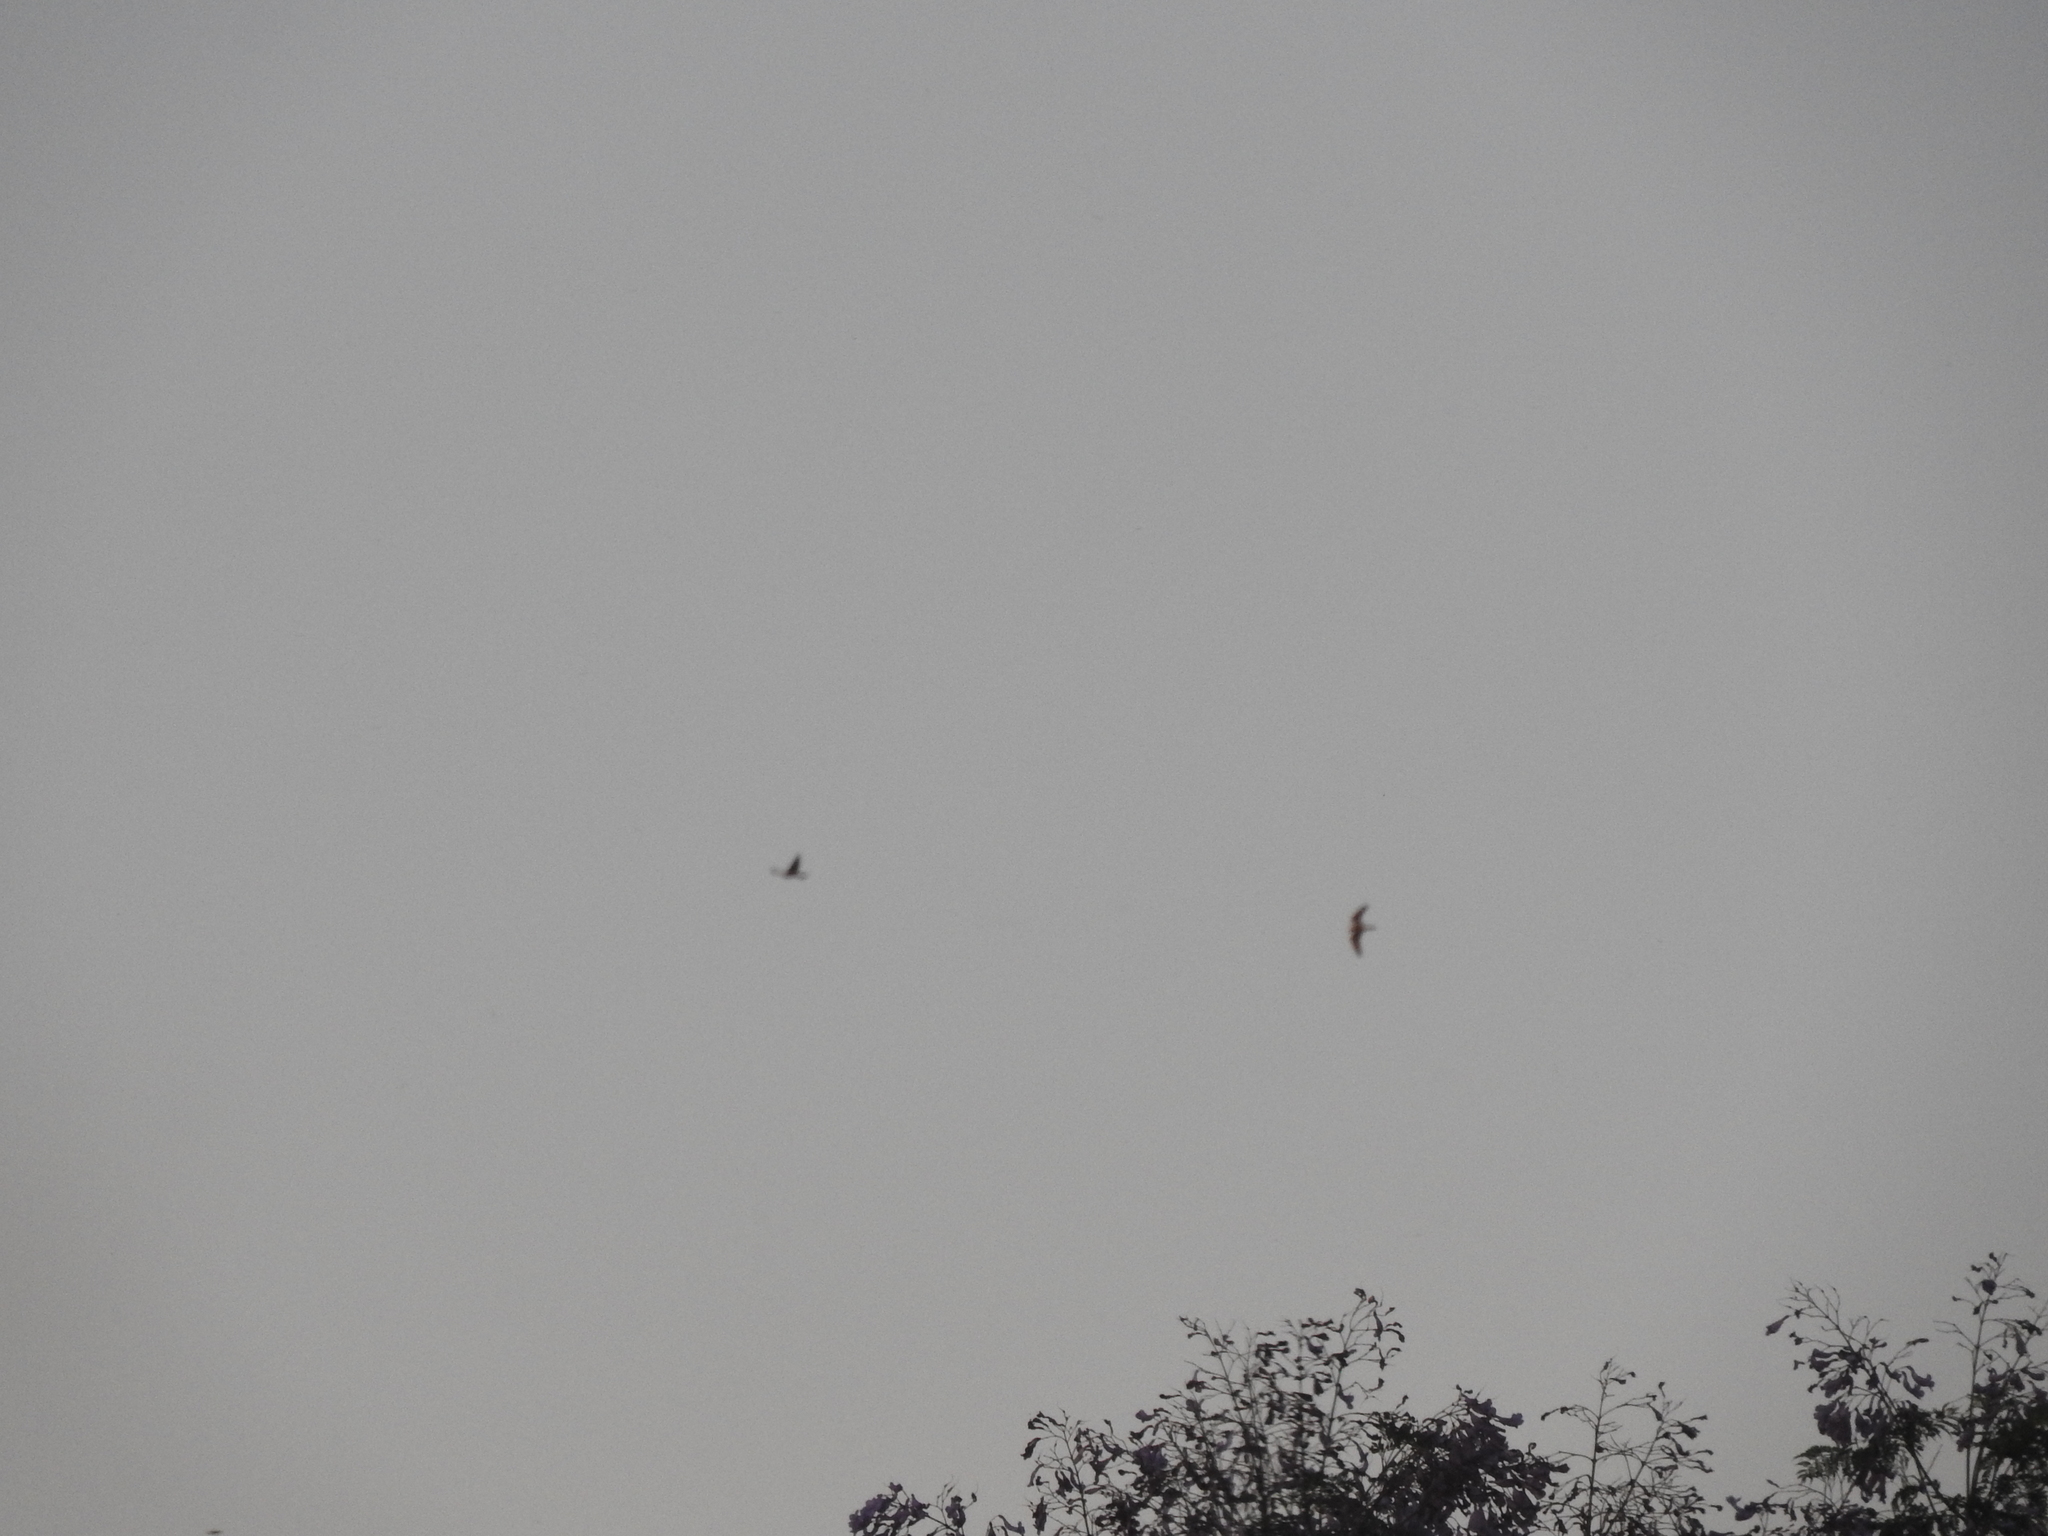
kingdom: Animalia
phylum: Chordata
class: Aves
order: Caprimulgiformes
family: Caprimulgidae
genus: Chordeiles
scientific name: Chordeiles acutipennis
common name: Lesser nighthawk
